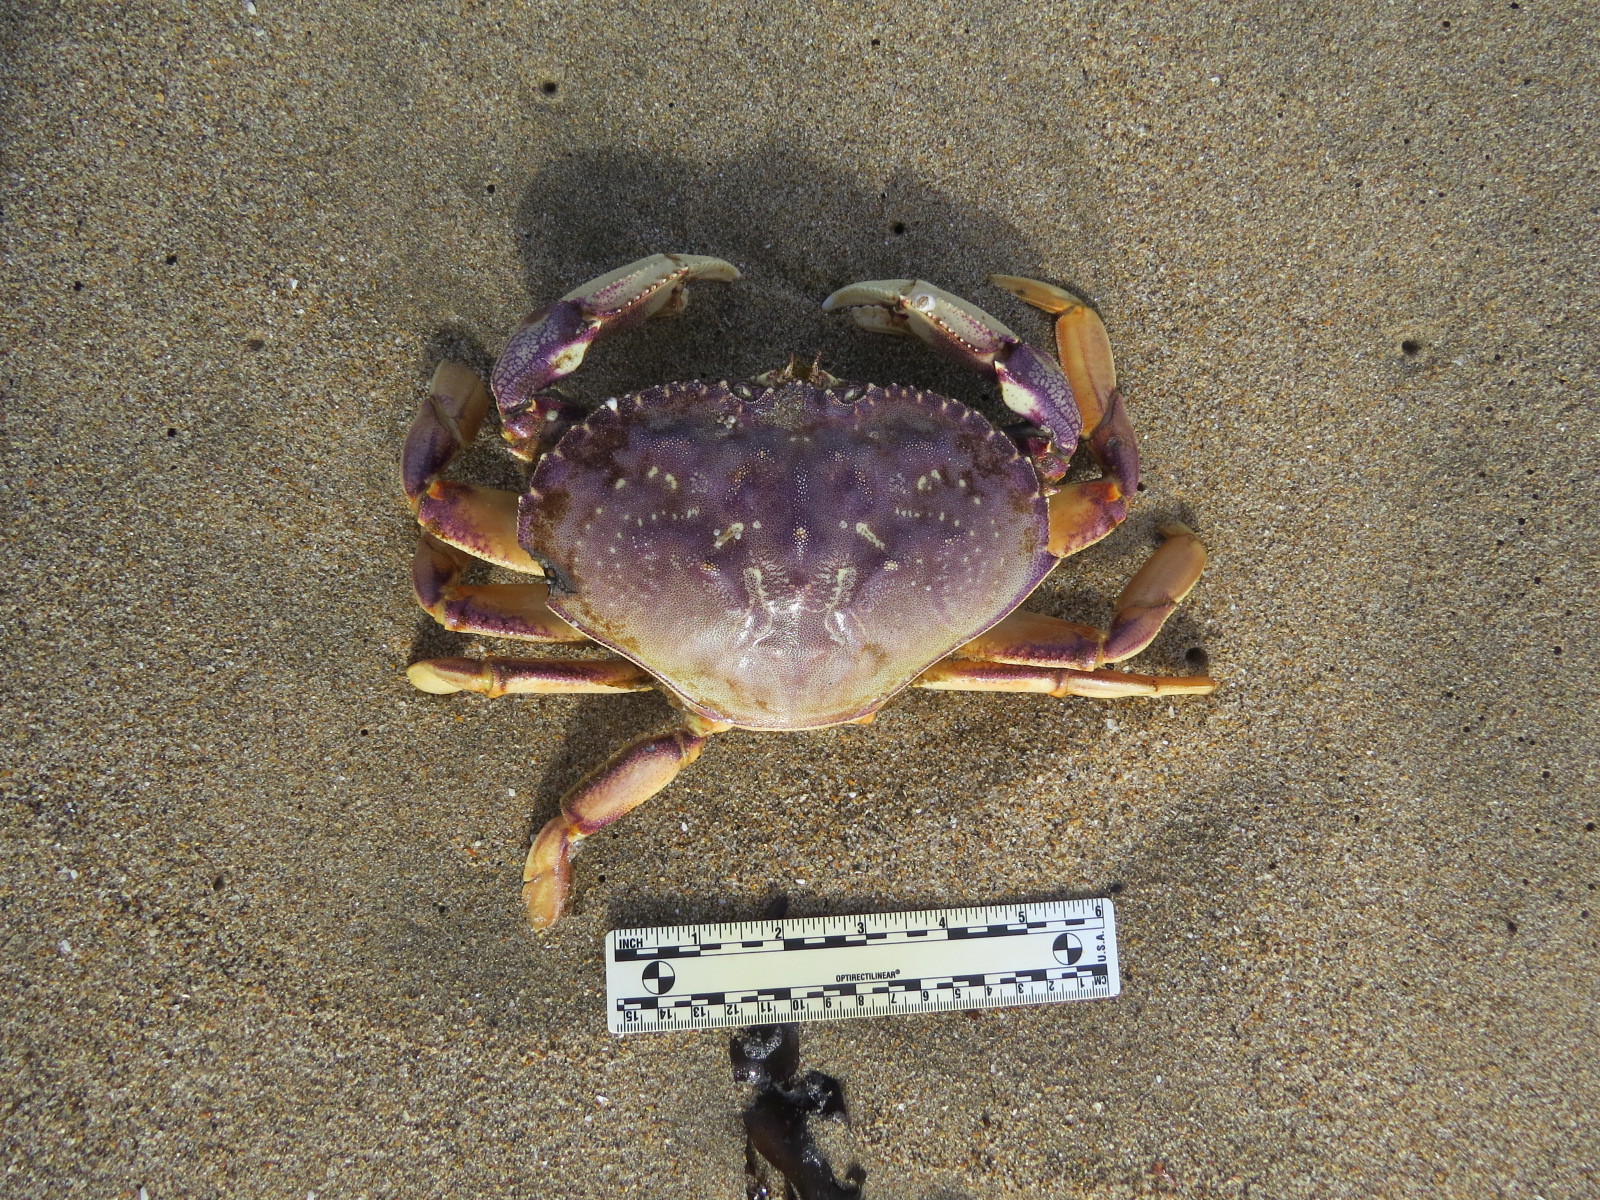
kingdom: Animalia
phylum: Arthropoda
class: Malacostraca
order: Decapoda
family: Cancridae
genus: Metacarcinus
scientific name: Metacarcinus magister
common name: Californian crab
